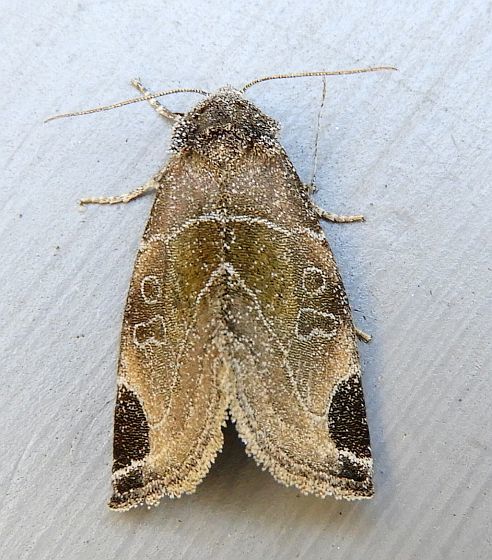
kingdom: Animalia
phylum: Arthropoda
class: Insecta
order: Lepidoptera
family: Noctuidae
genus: Plagiomimicus
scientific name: Plagiomimicus curiosum
